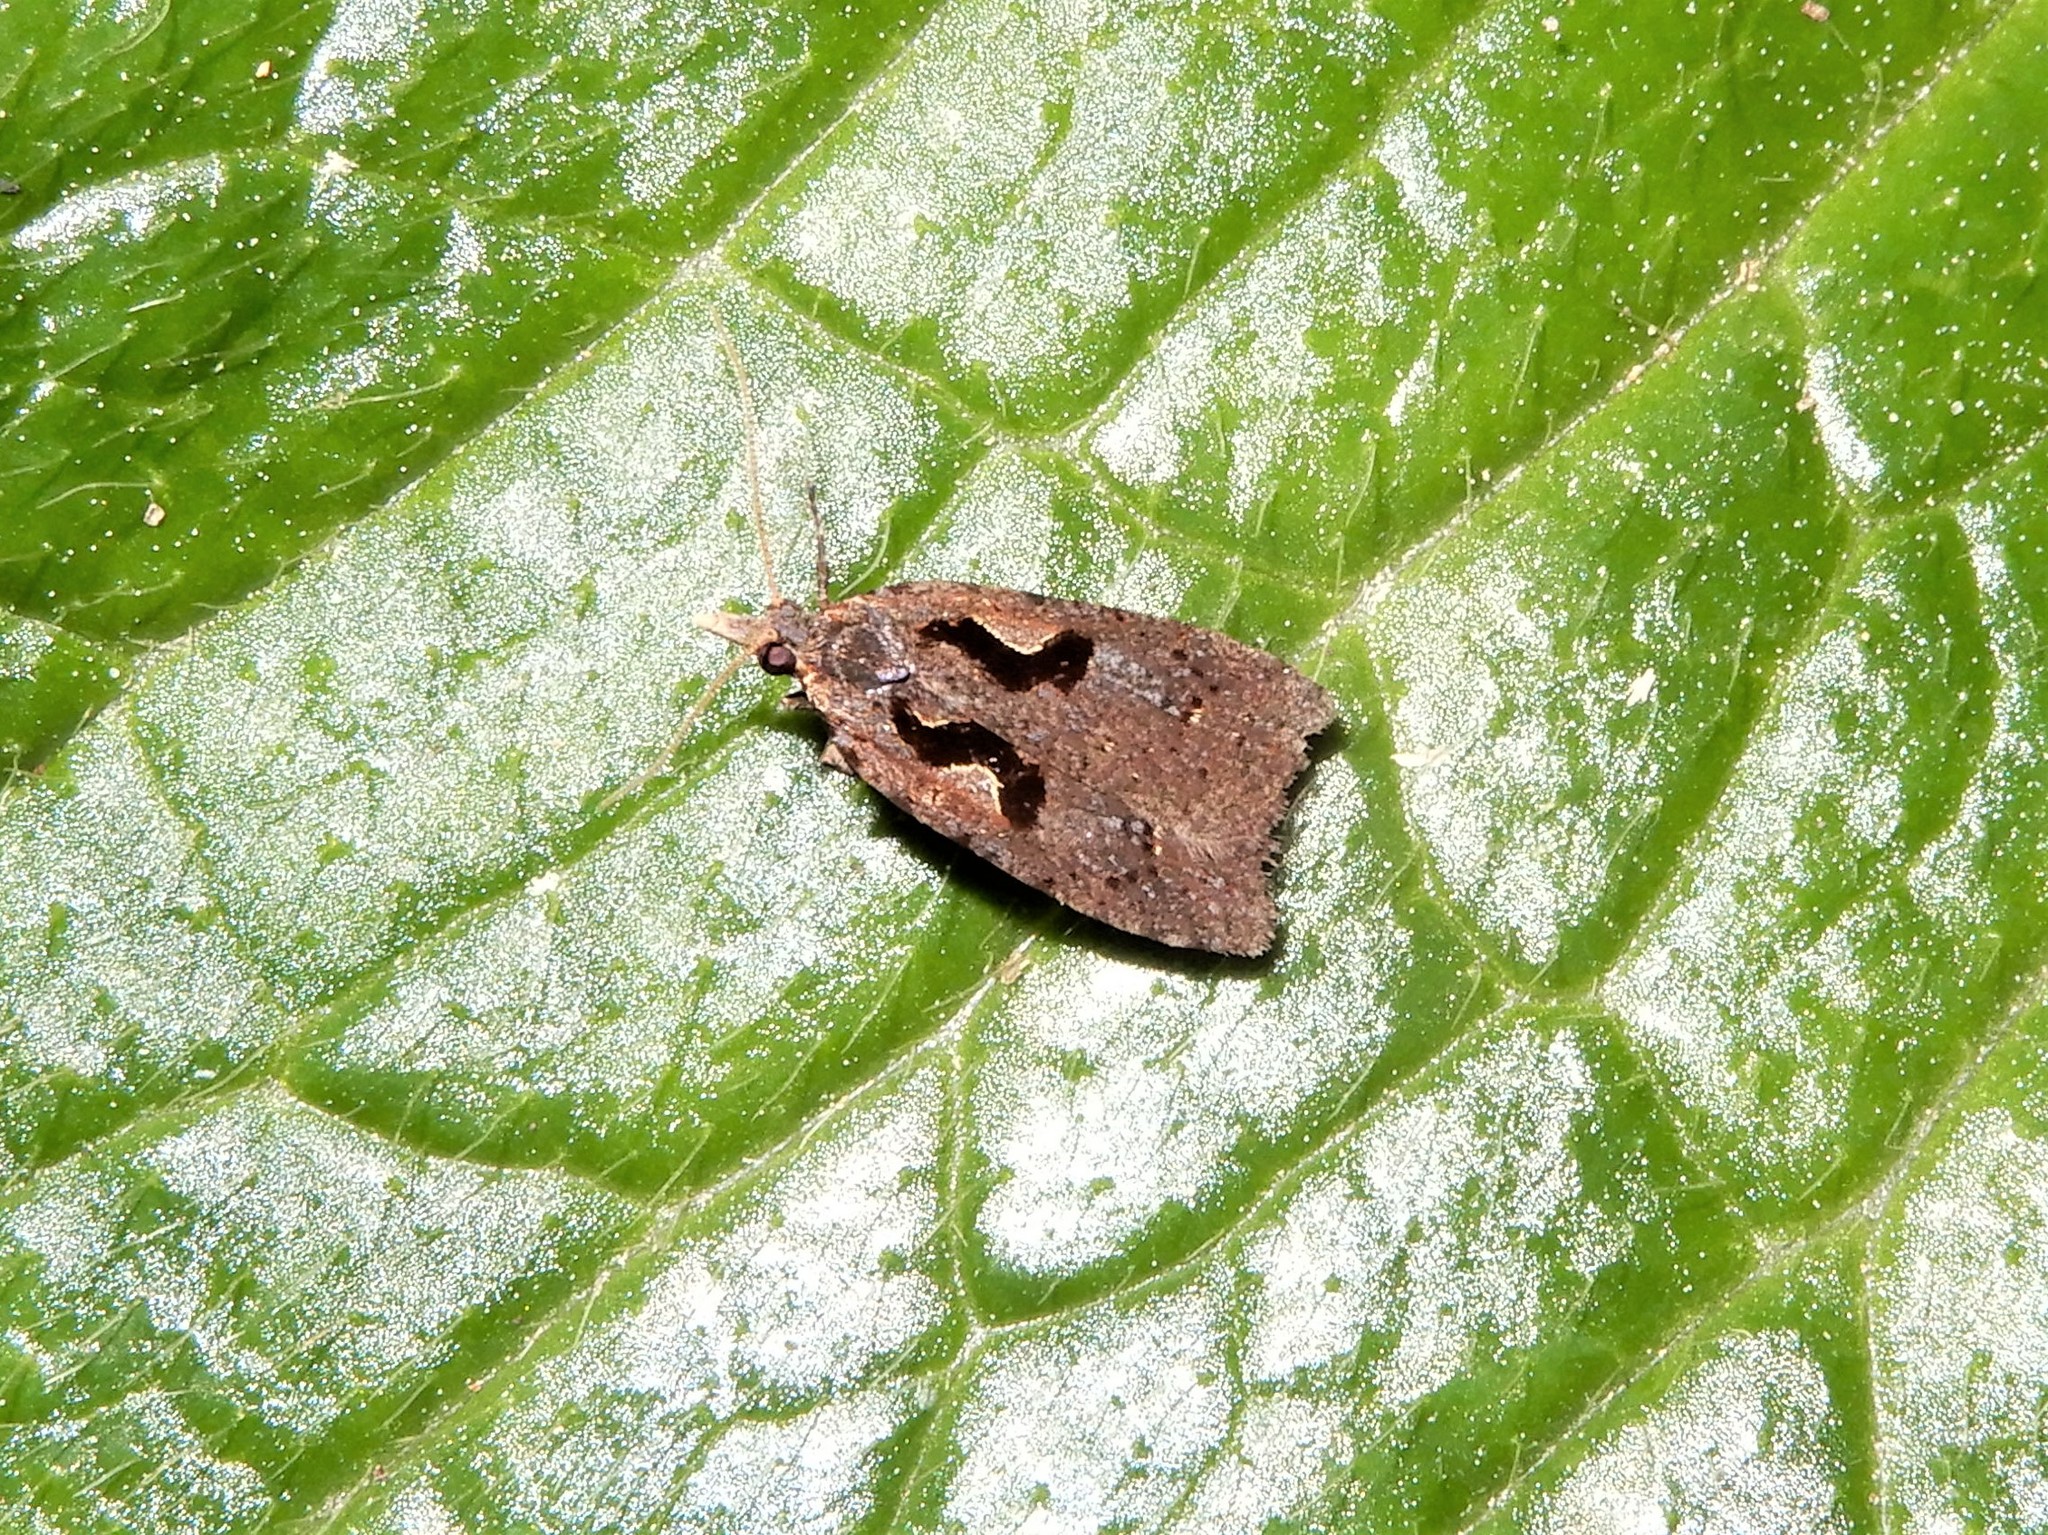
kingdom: Animalia
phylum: Arthropoda
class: Insecta
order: Lepidoptera
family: Tortricidae
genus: Cnephasia
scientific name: Cnephasia jactatana
